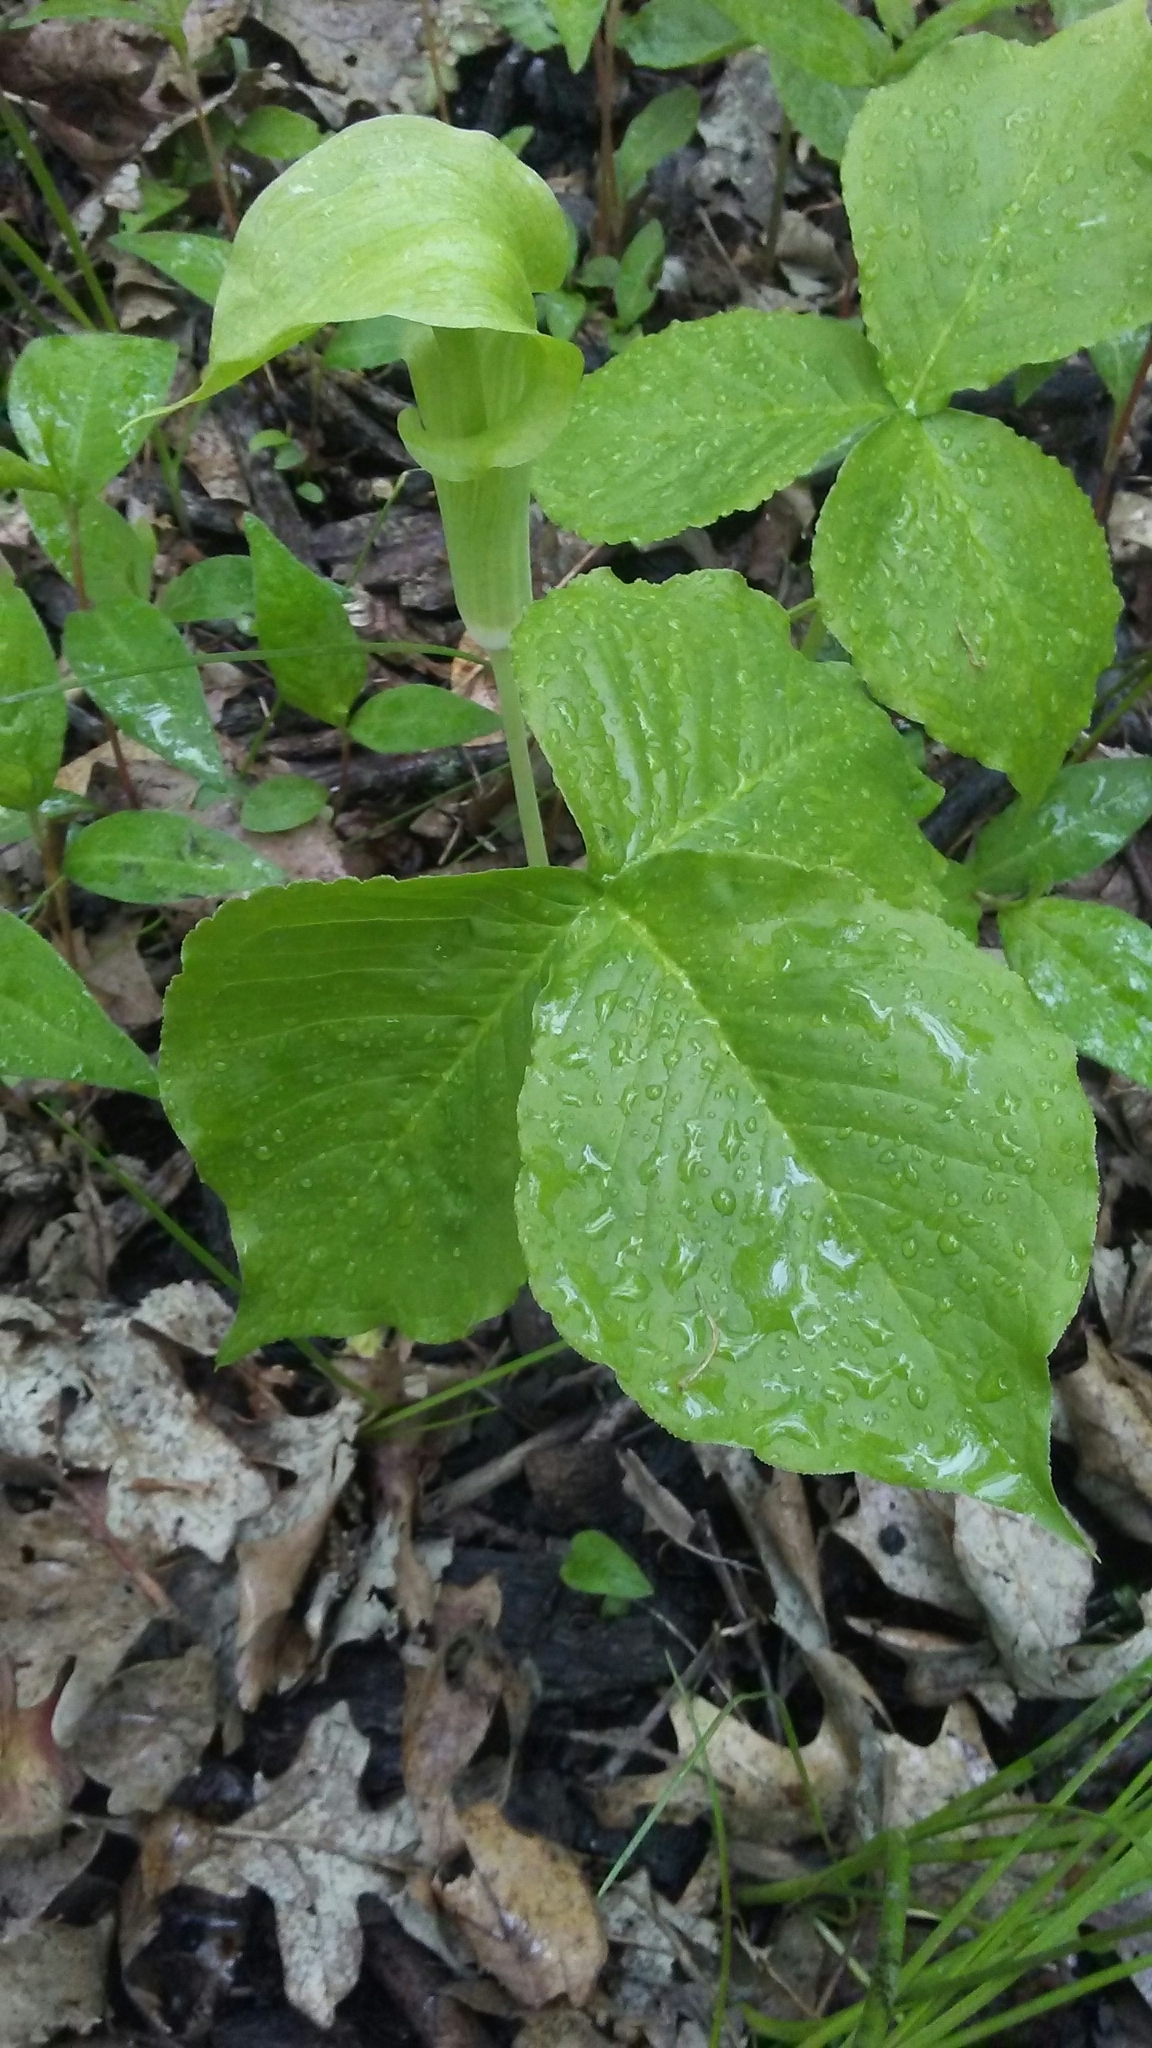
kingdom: Plantae
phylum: Tracheophyta
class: Liliopsida
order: Alismatales
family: Araceae
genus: Arisaema
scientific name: Arisaema triphyllum
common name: Jack-in-the-pulpit
